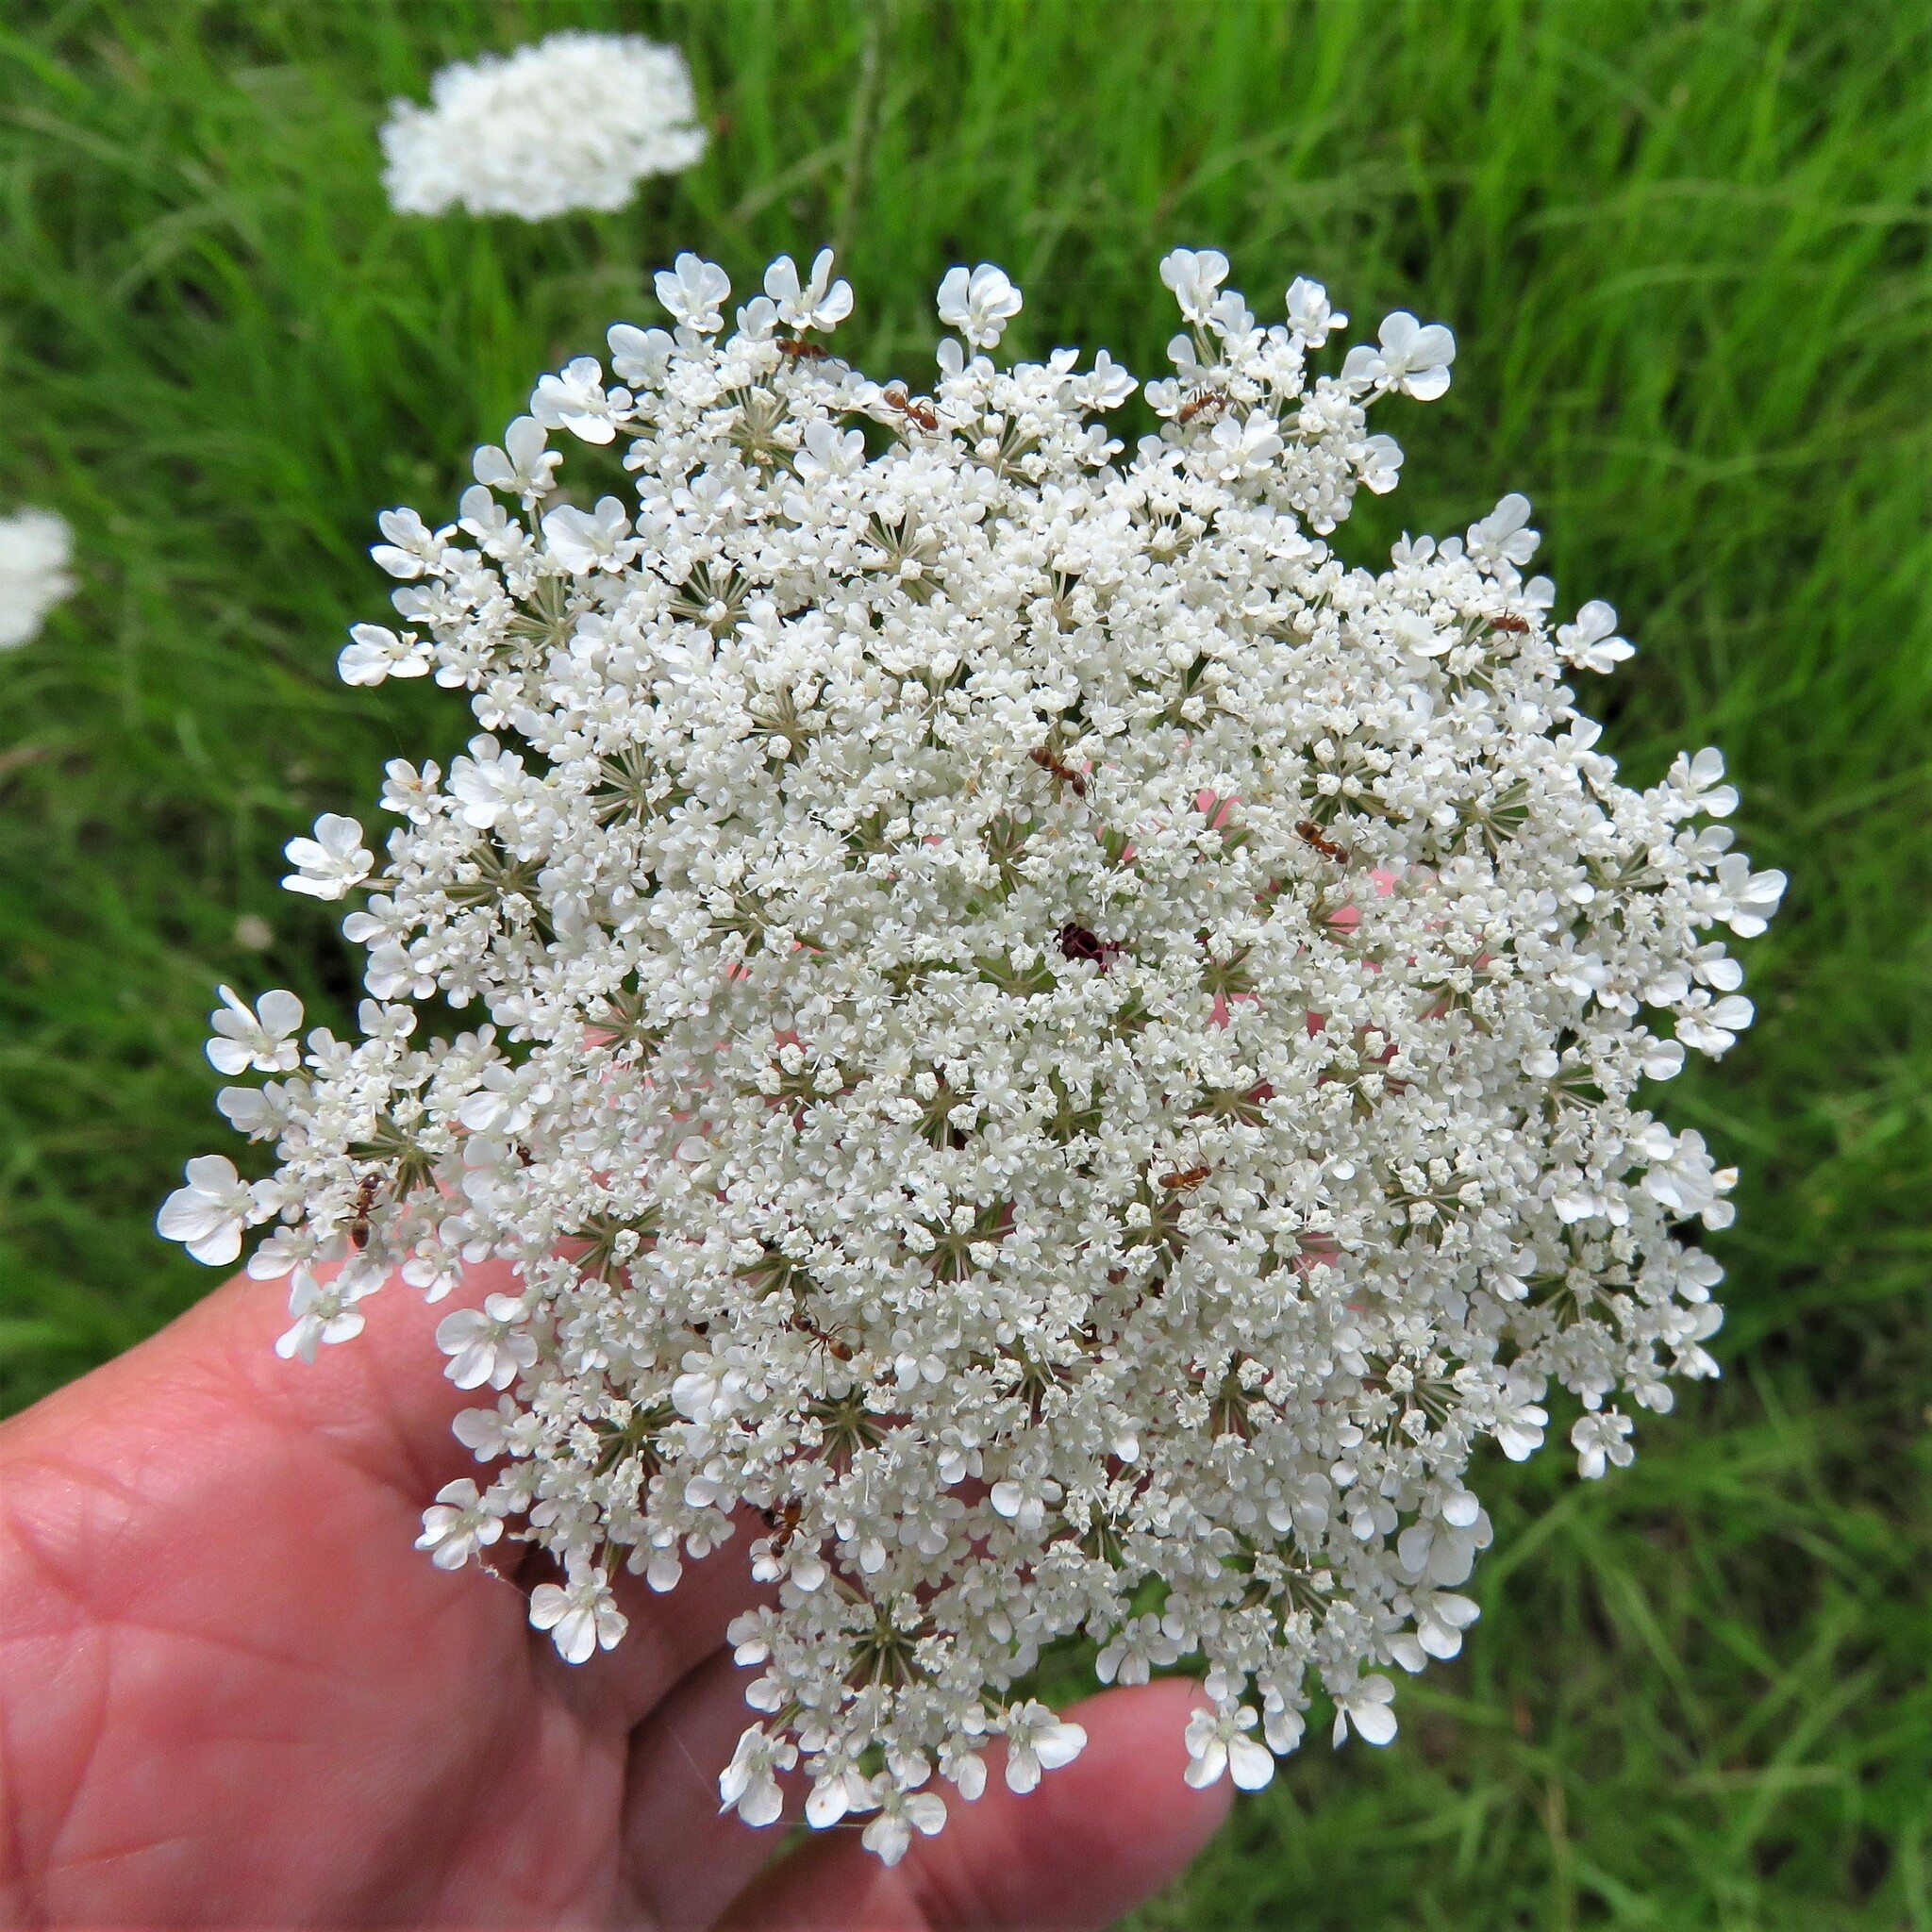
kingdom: Plantae
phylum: Tracheophyta
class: Magnoliopsida
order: Apiales
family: Apiaceae
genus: Daucus
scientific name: Daucus carota
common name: Wild carrot
